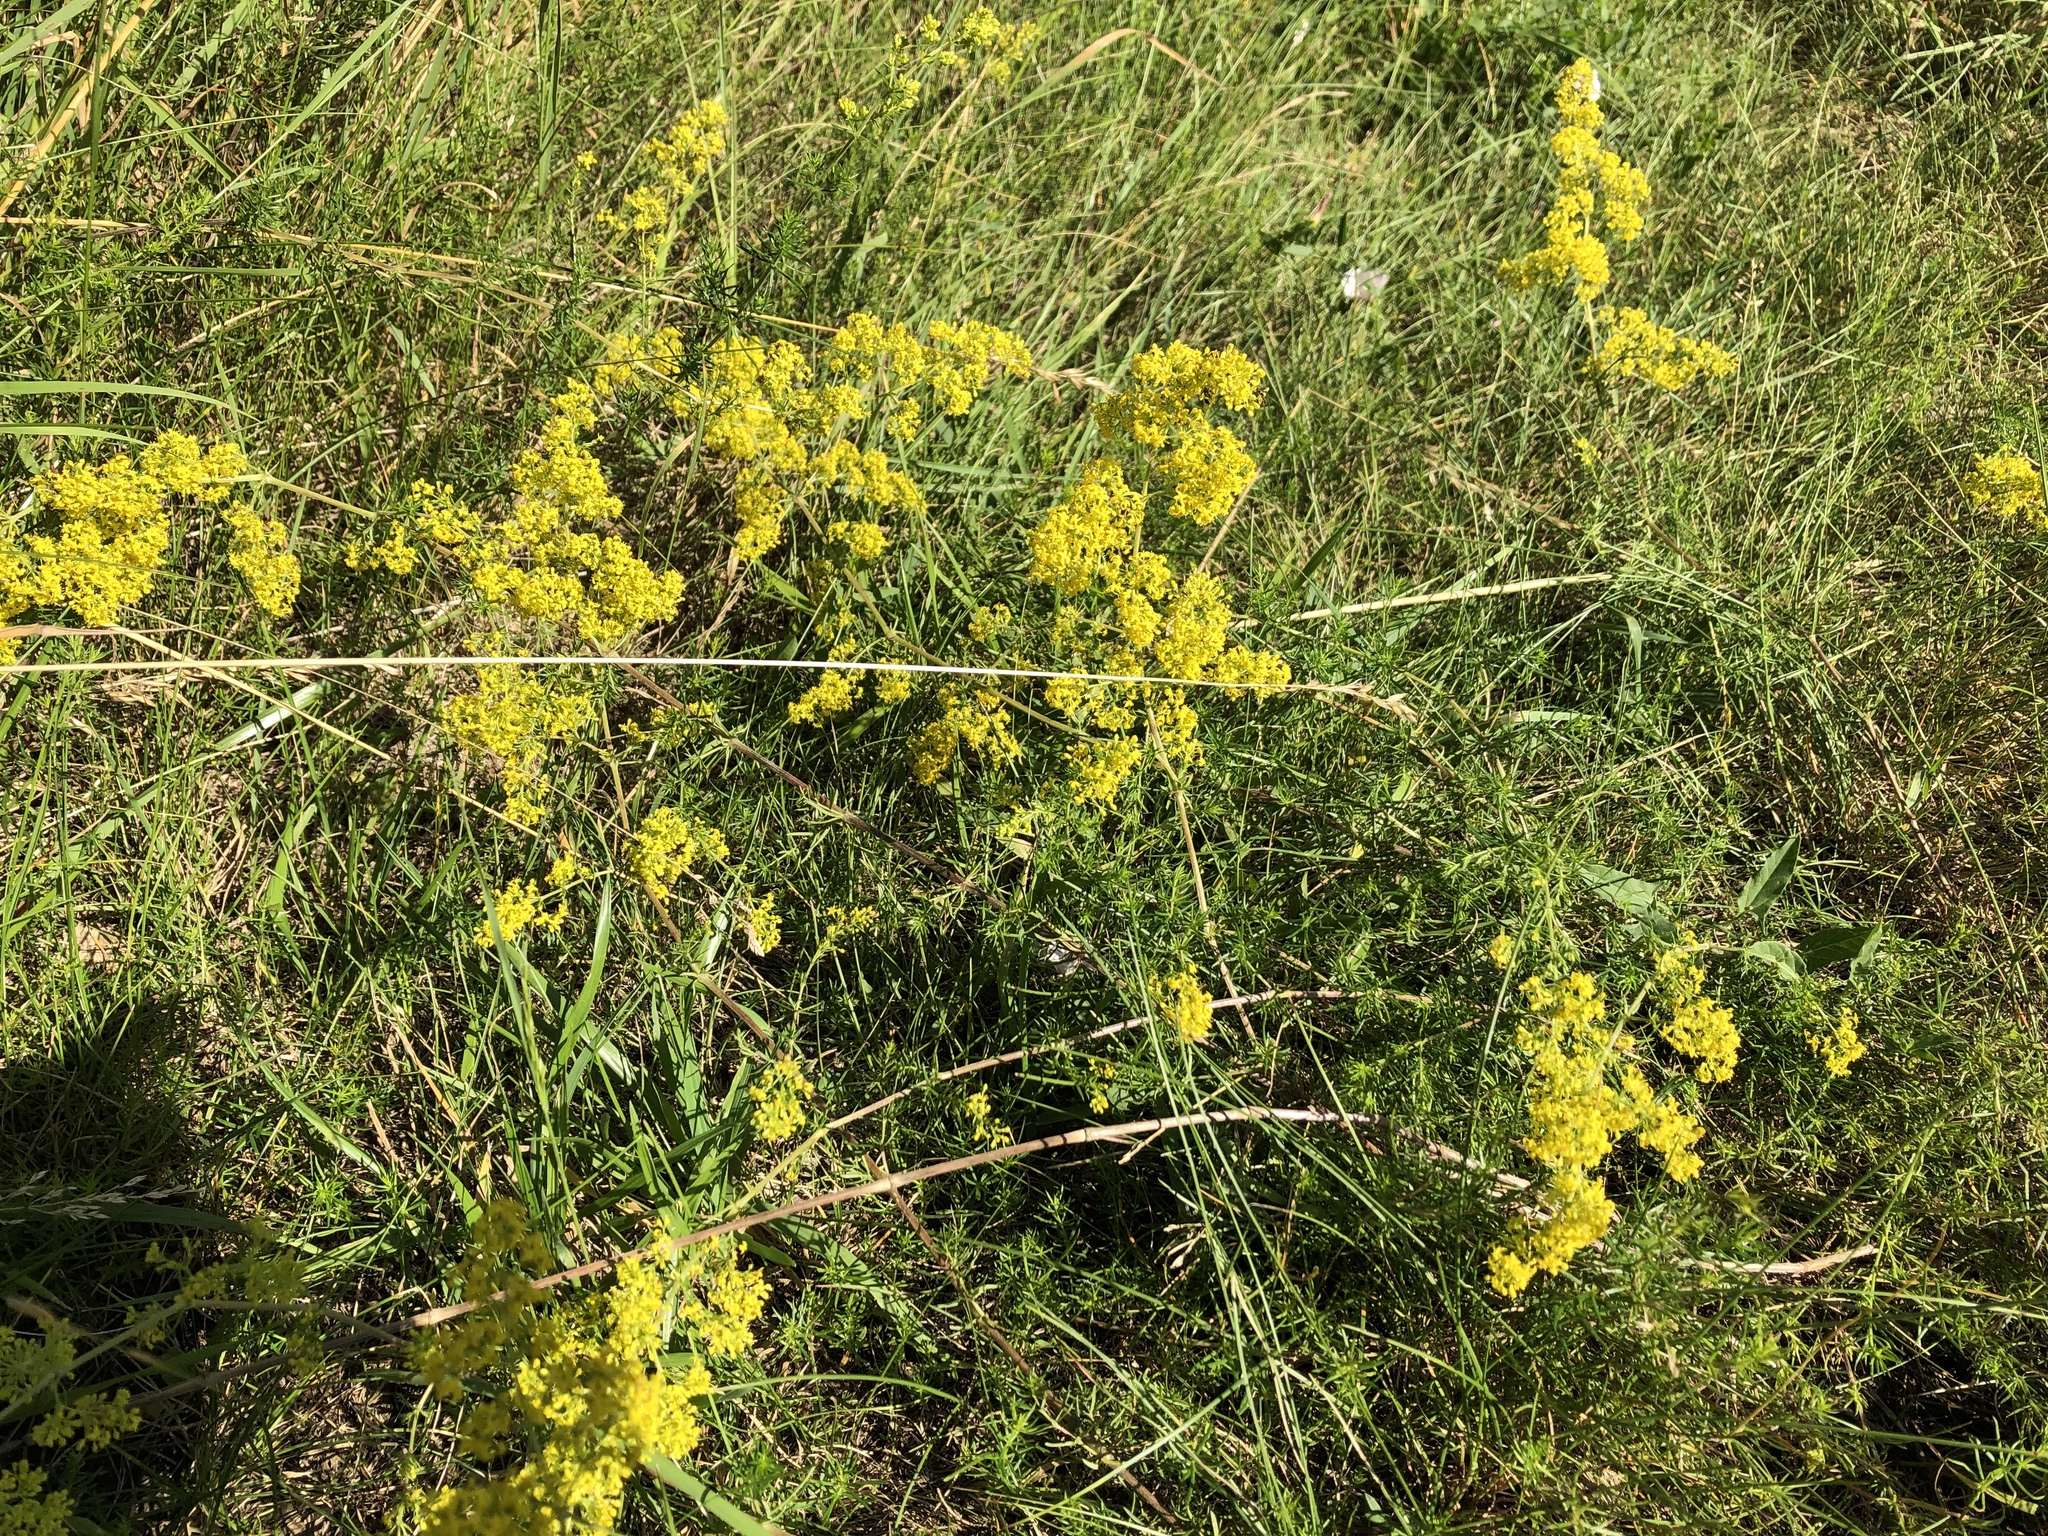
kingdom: Plantae
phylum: Tracheophyta
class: Magnoliopsida
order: Gentianales
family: Rubiaceae
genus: Galium
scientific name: Galium verum
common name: Lady's bedstraw
